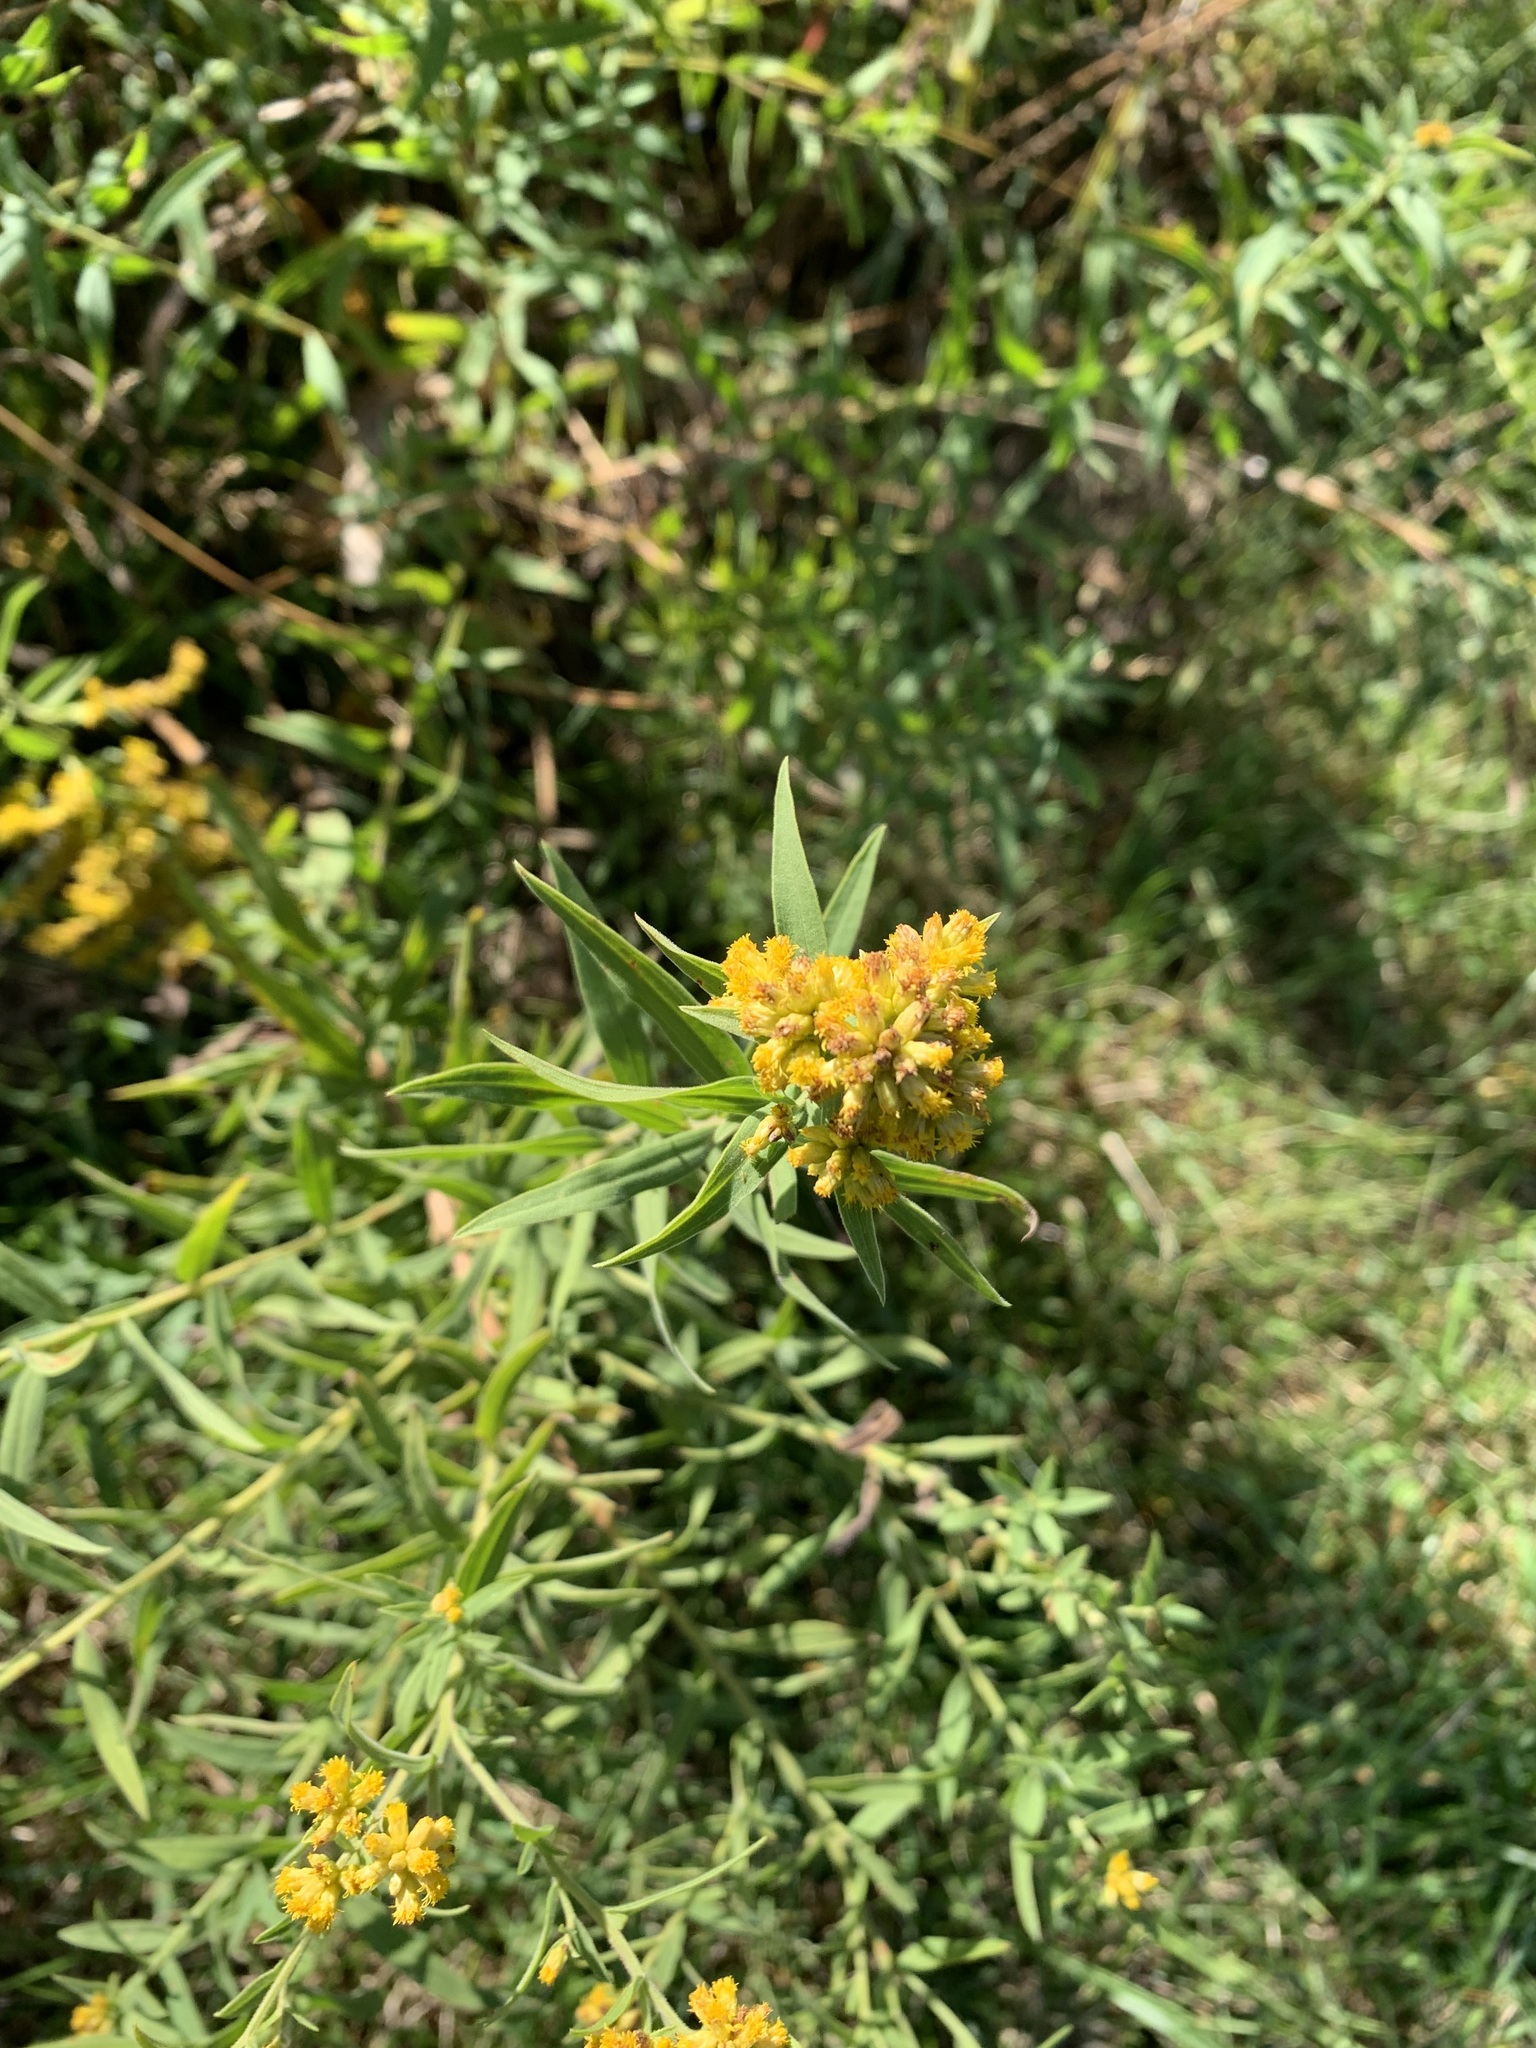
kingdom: Plantae
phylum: Tracheophyta
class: Magnoliopsida
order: Asterales
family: Asteraceae
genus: Euthamia
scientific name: Euthamia graminifolia
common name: Common goldentop
